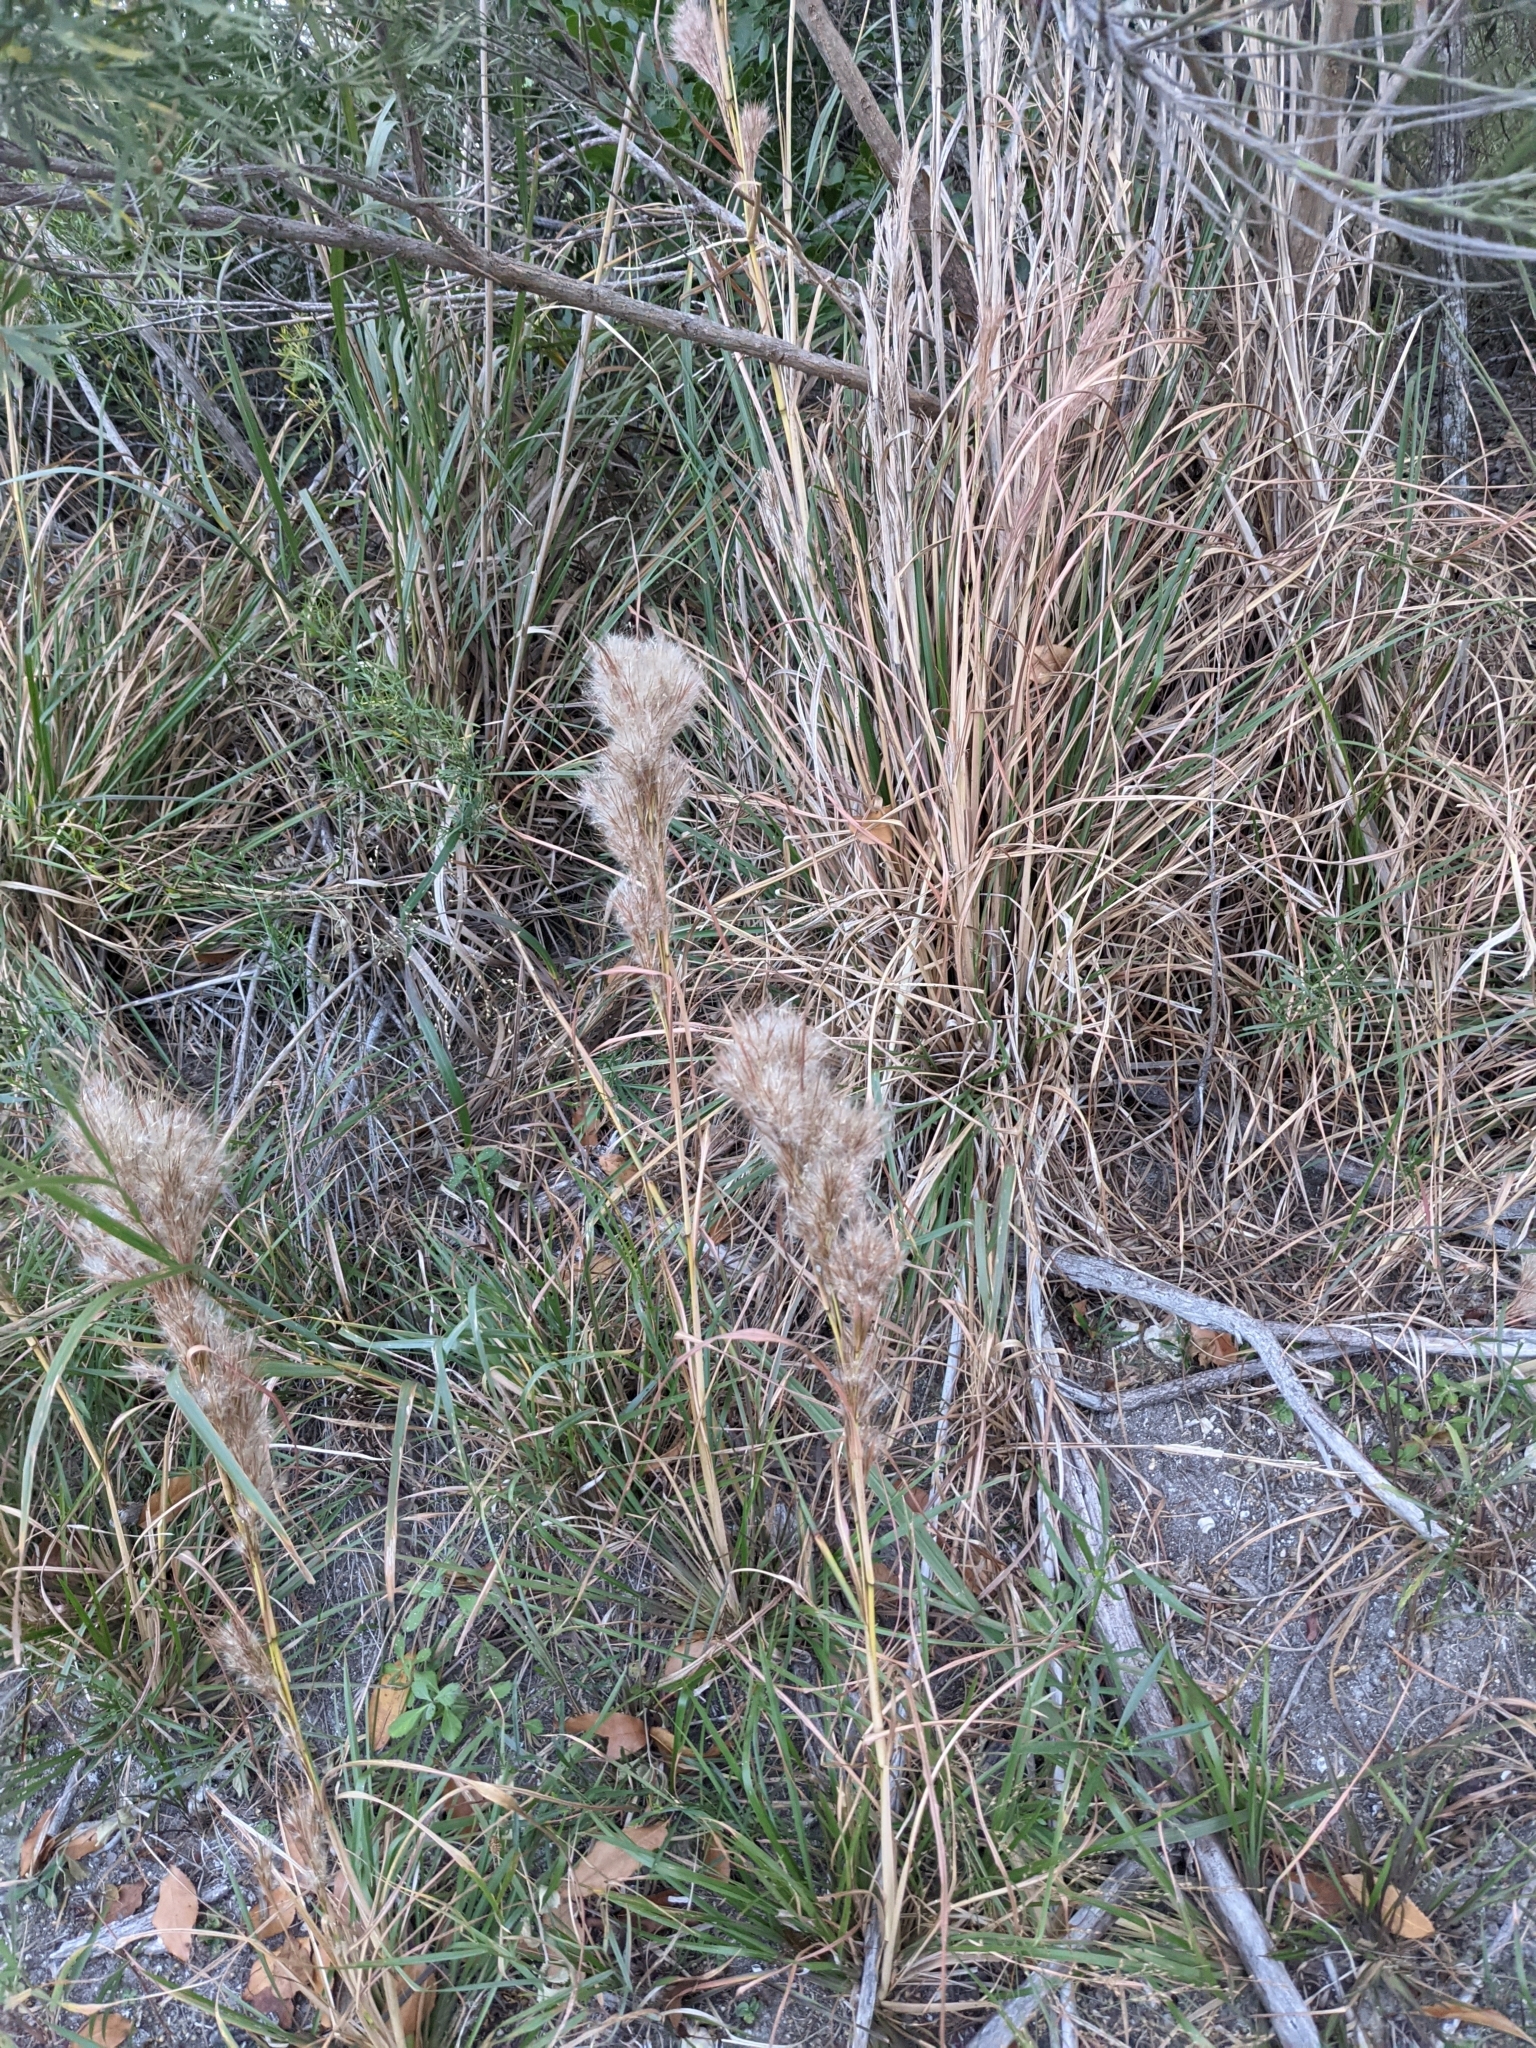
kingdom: Plantae
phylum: Tracheophyta
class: Liliopsida
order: Poales
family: Poaceae
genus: Andropogon
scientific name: Andropogon tenuispatheus
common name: Bushy bluestem
